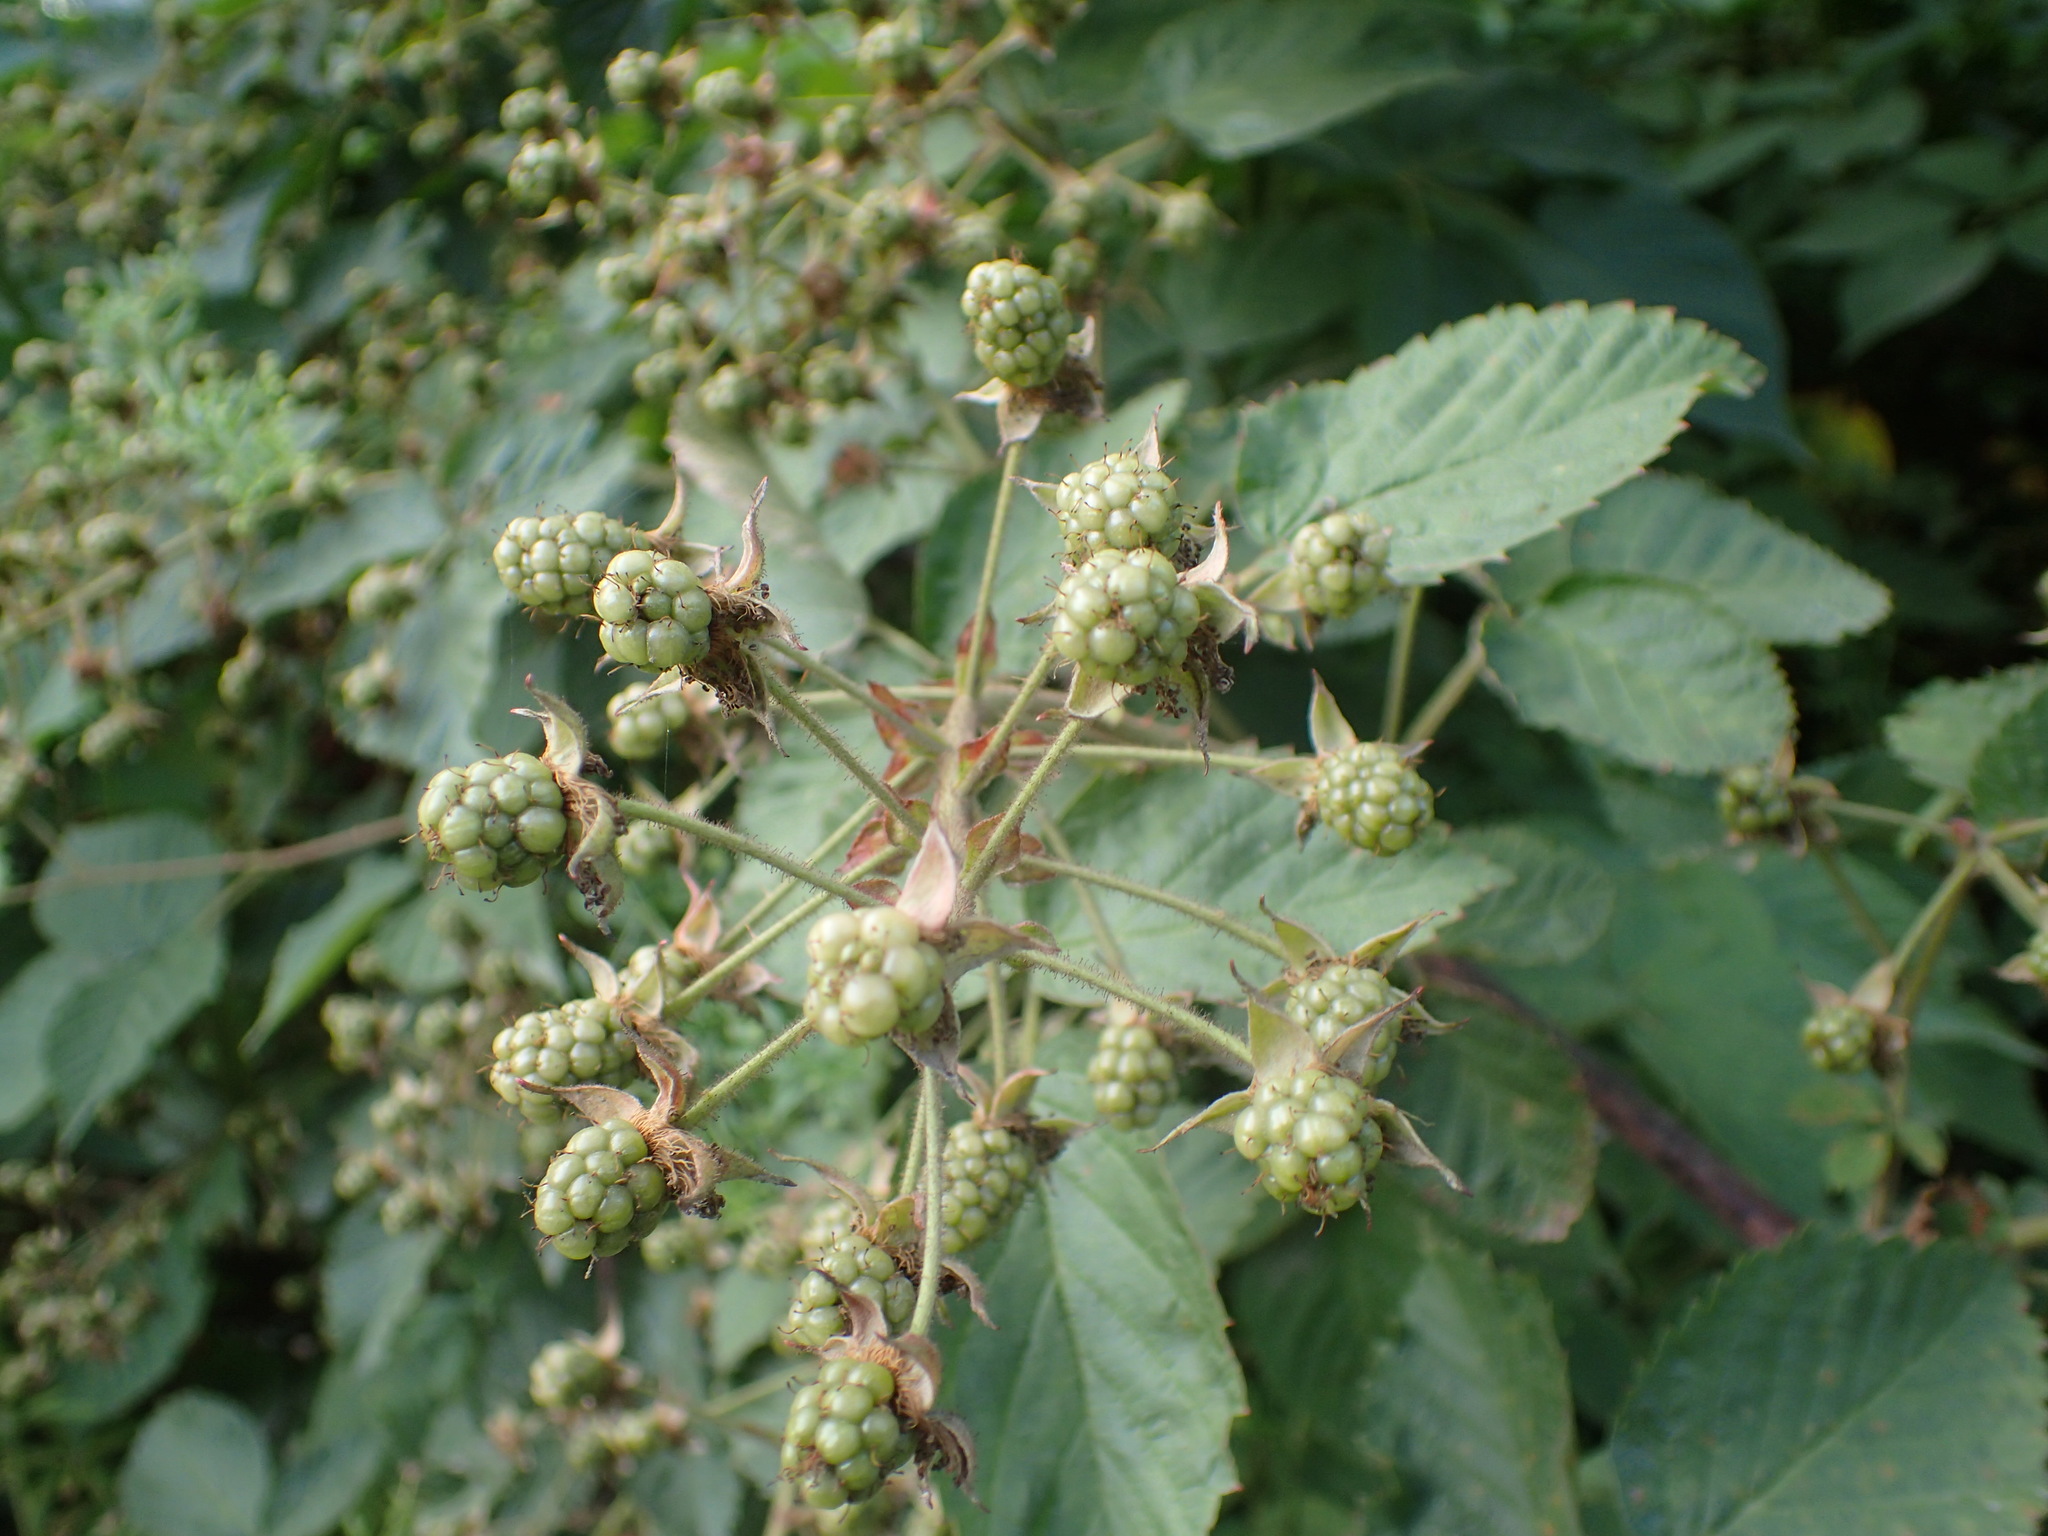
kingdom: Plantae
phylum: Tracheophyta
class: Magnoliopsida
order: Rosales
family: Rosaceae
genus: Rubus
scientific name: Rubus allegheniensis
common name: Allegheny blackberry
